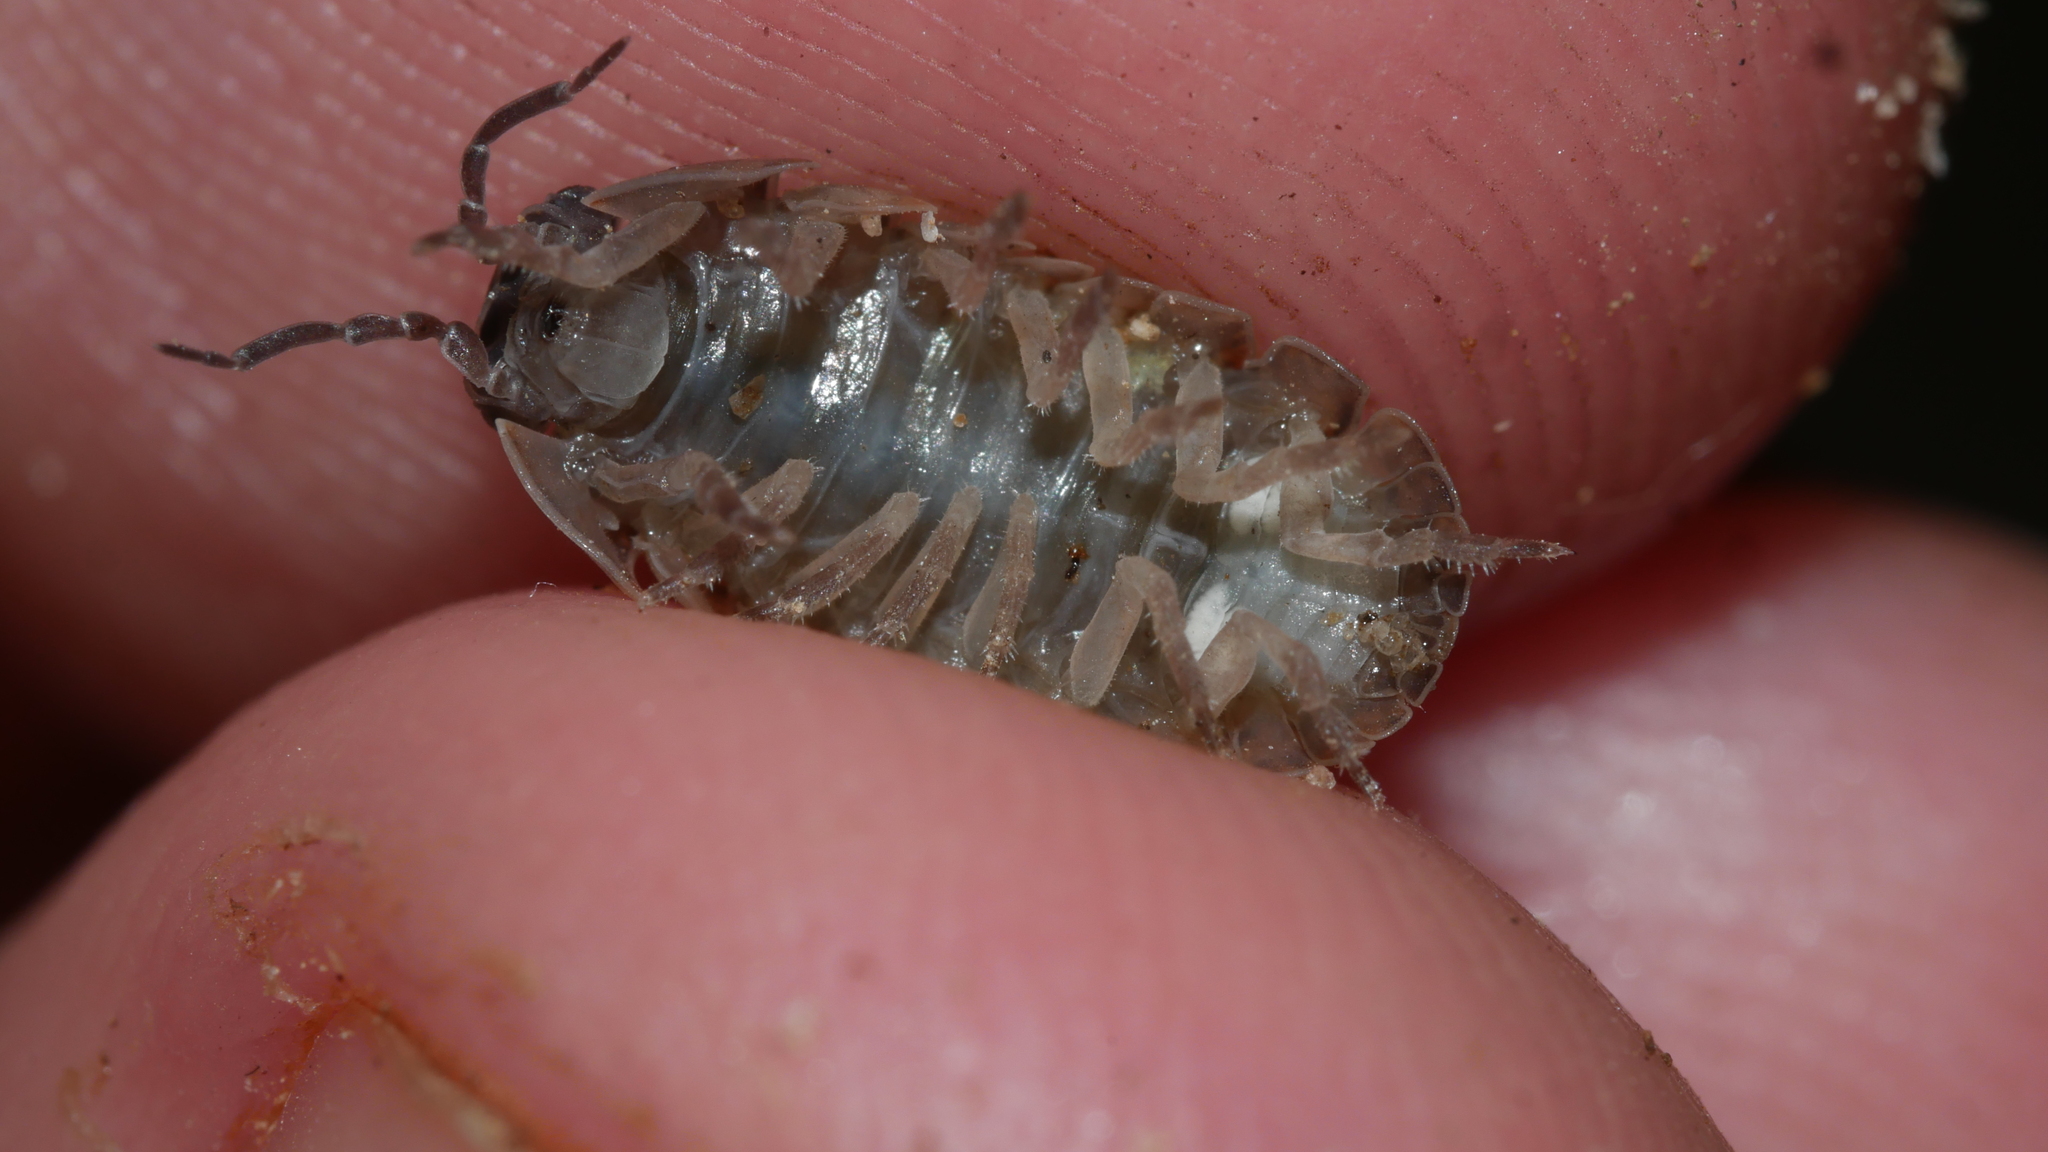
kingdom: Animalia
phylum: Arthropoda
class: Malacostraca
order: Isopoda
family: Armadillidiidae
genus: Armadillidium
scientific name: Armadillidium vulgare
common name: Common pill woodlouse
